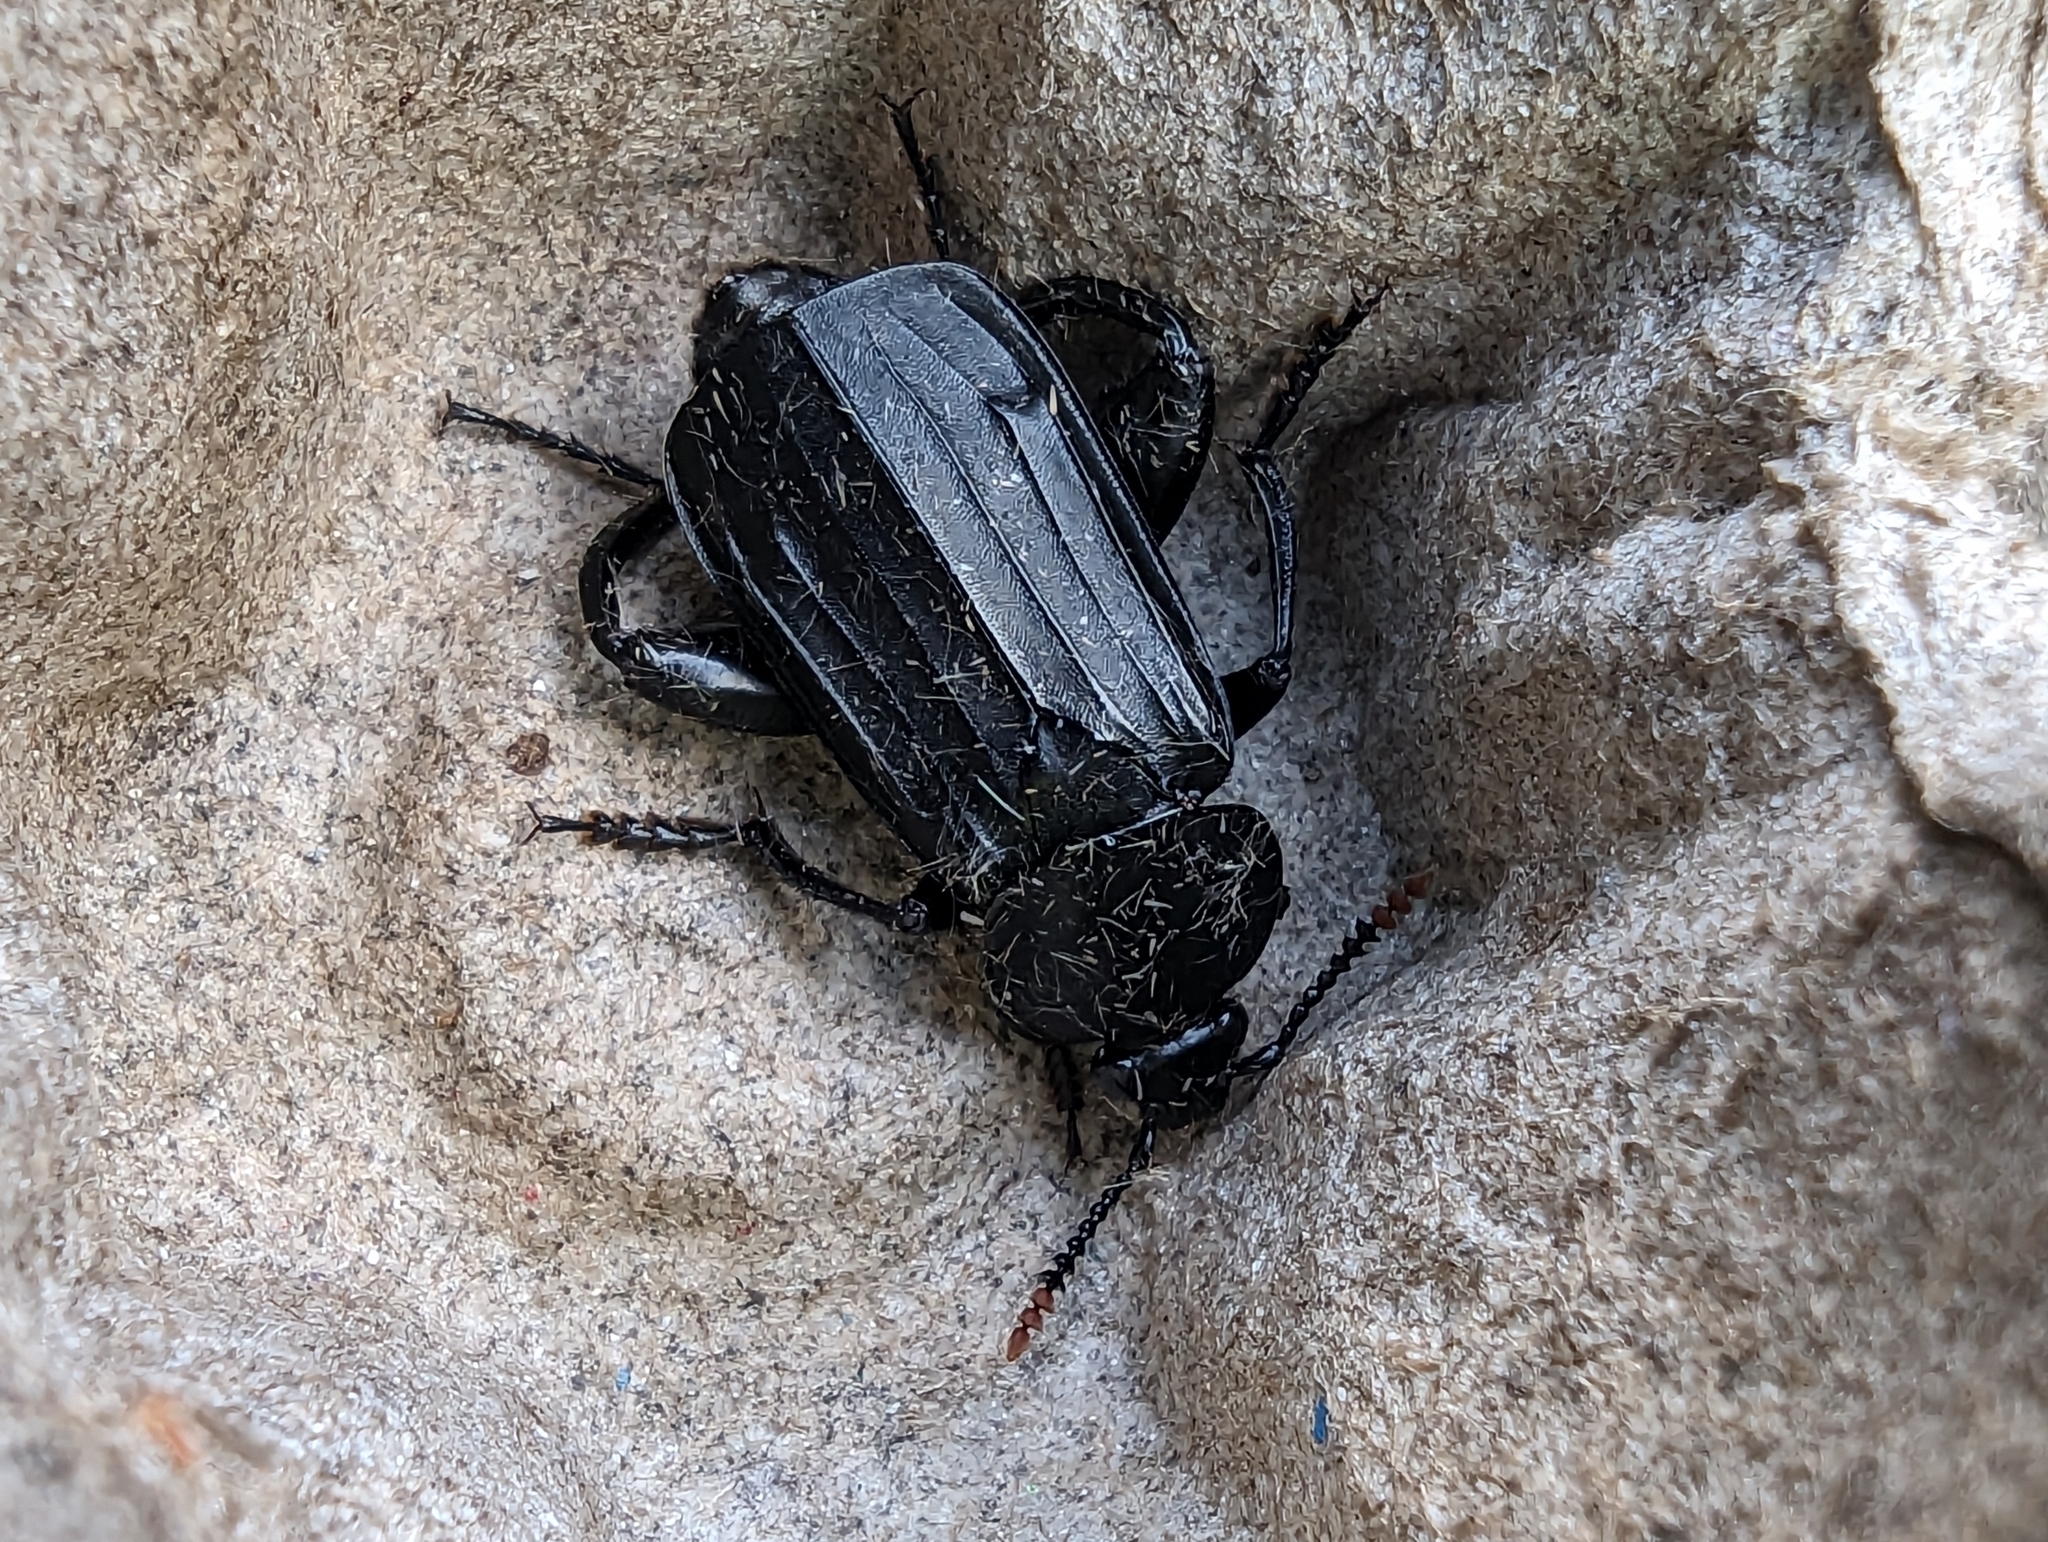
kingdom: Animalia
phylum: Arthropoda
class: Insecta
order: Coleoptera
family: Staphylinidae
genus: Necrodes
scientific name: Necrodes littoralis
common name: Shore sexton beetle
